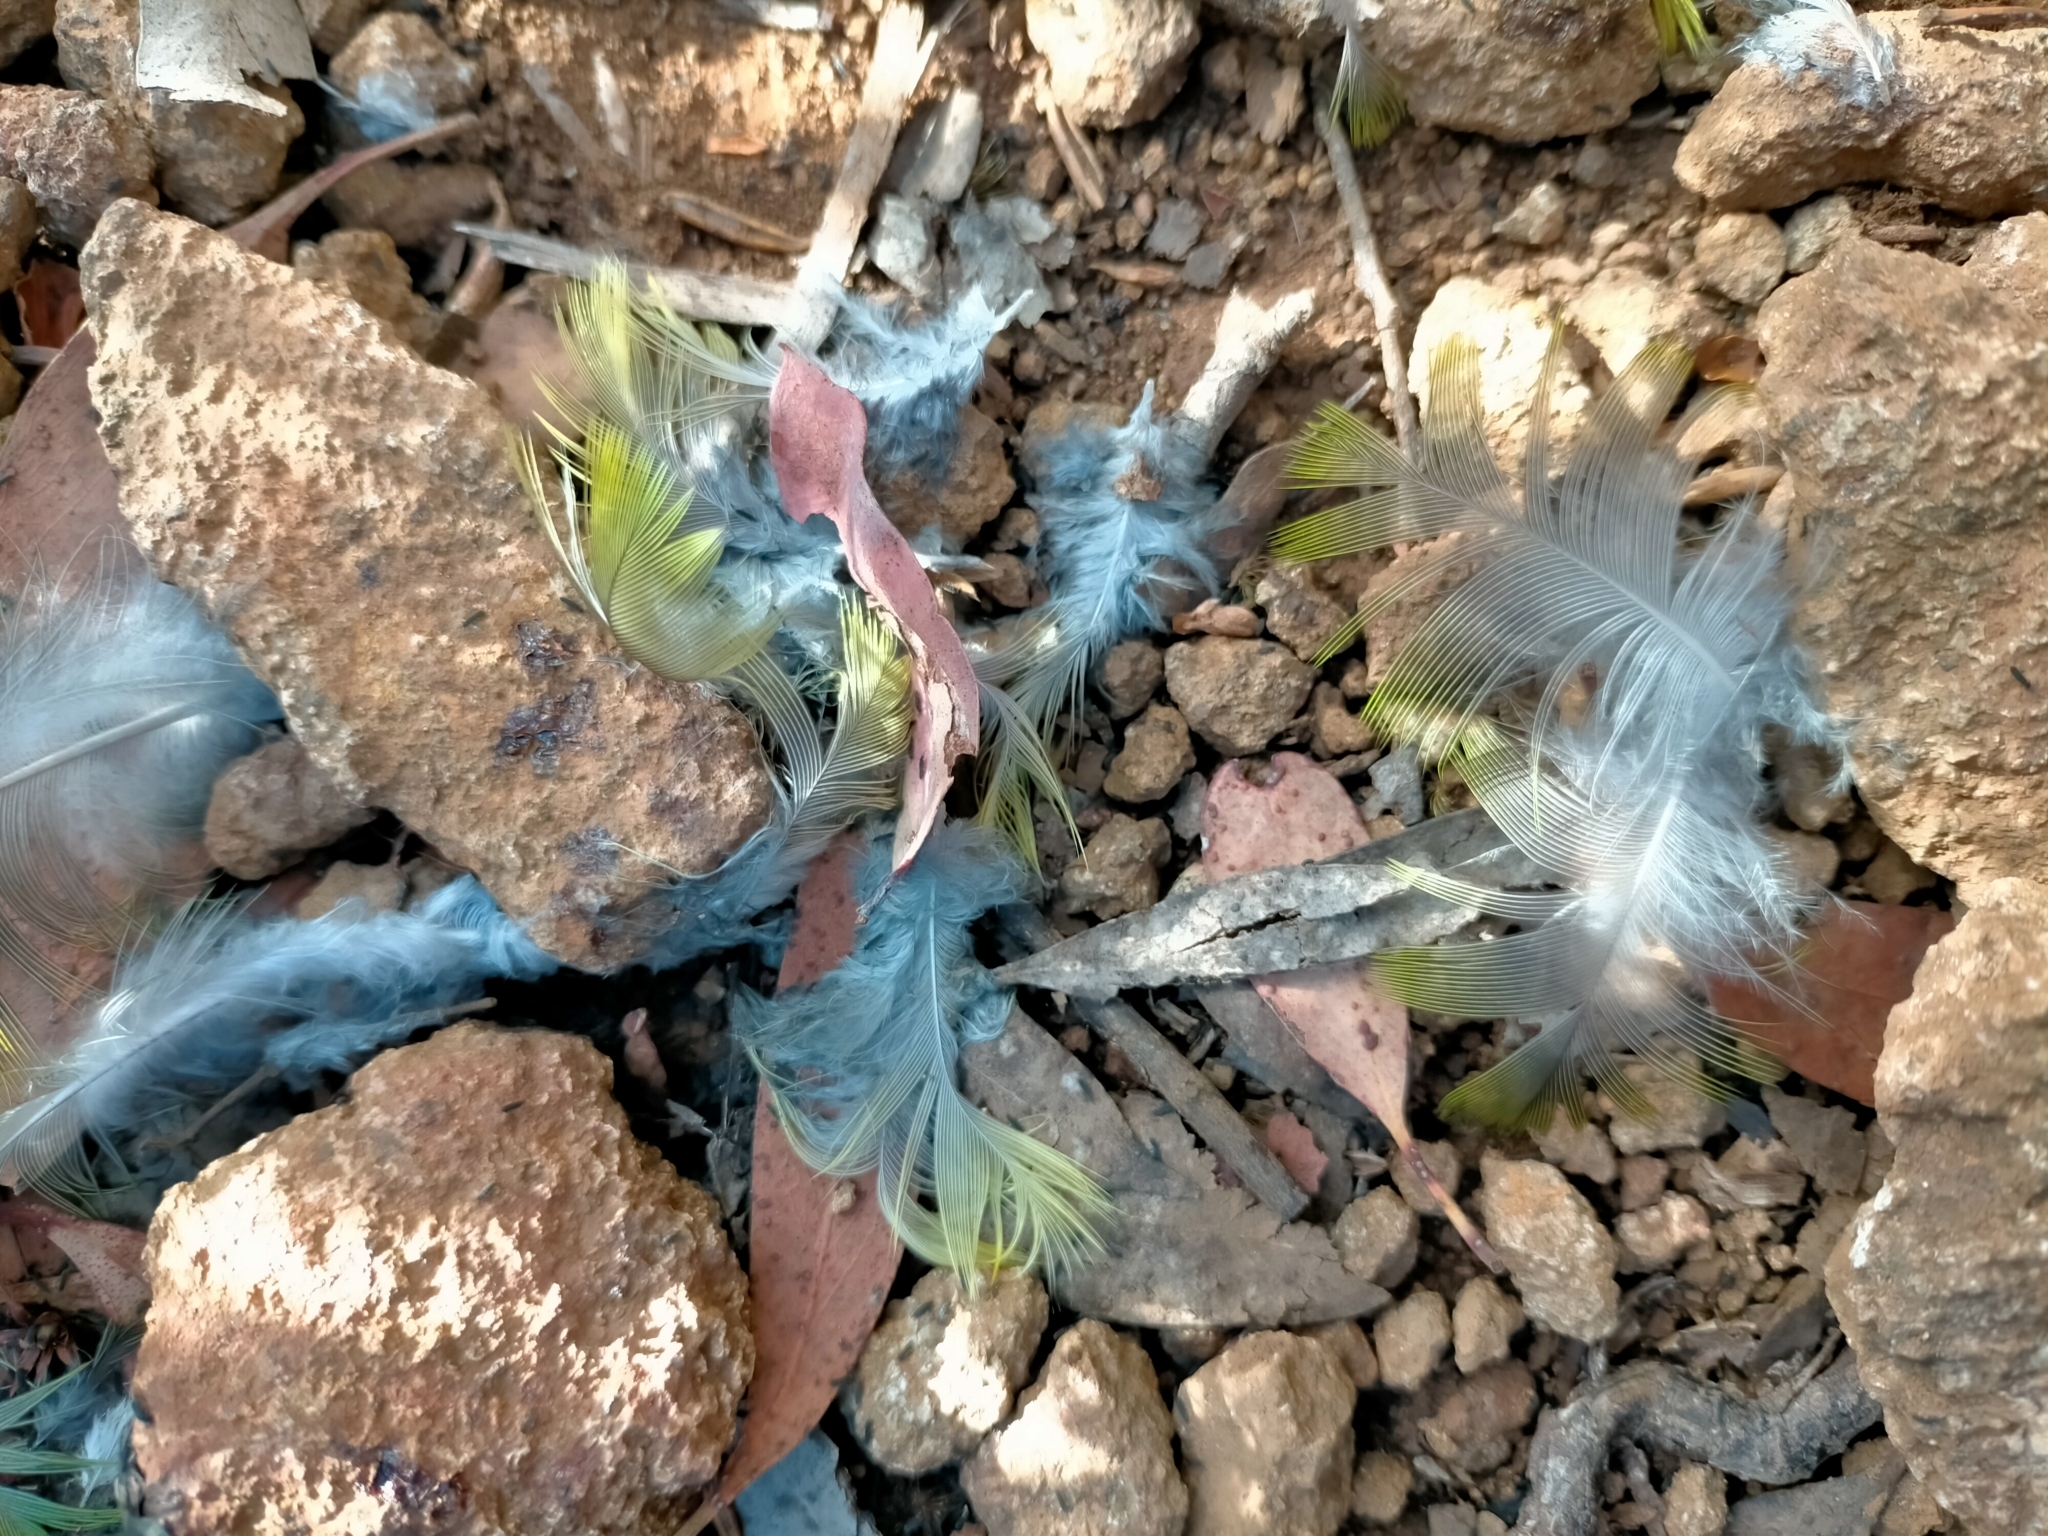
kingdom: Animalia
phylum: Chordata
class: Aves
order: Psittaciformes
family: Psittacidae
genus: Platycercus
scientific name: Platycercus caledonicus
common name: Green rosella
